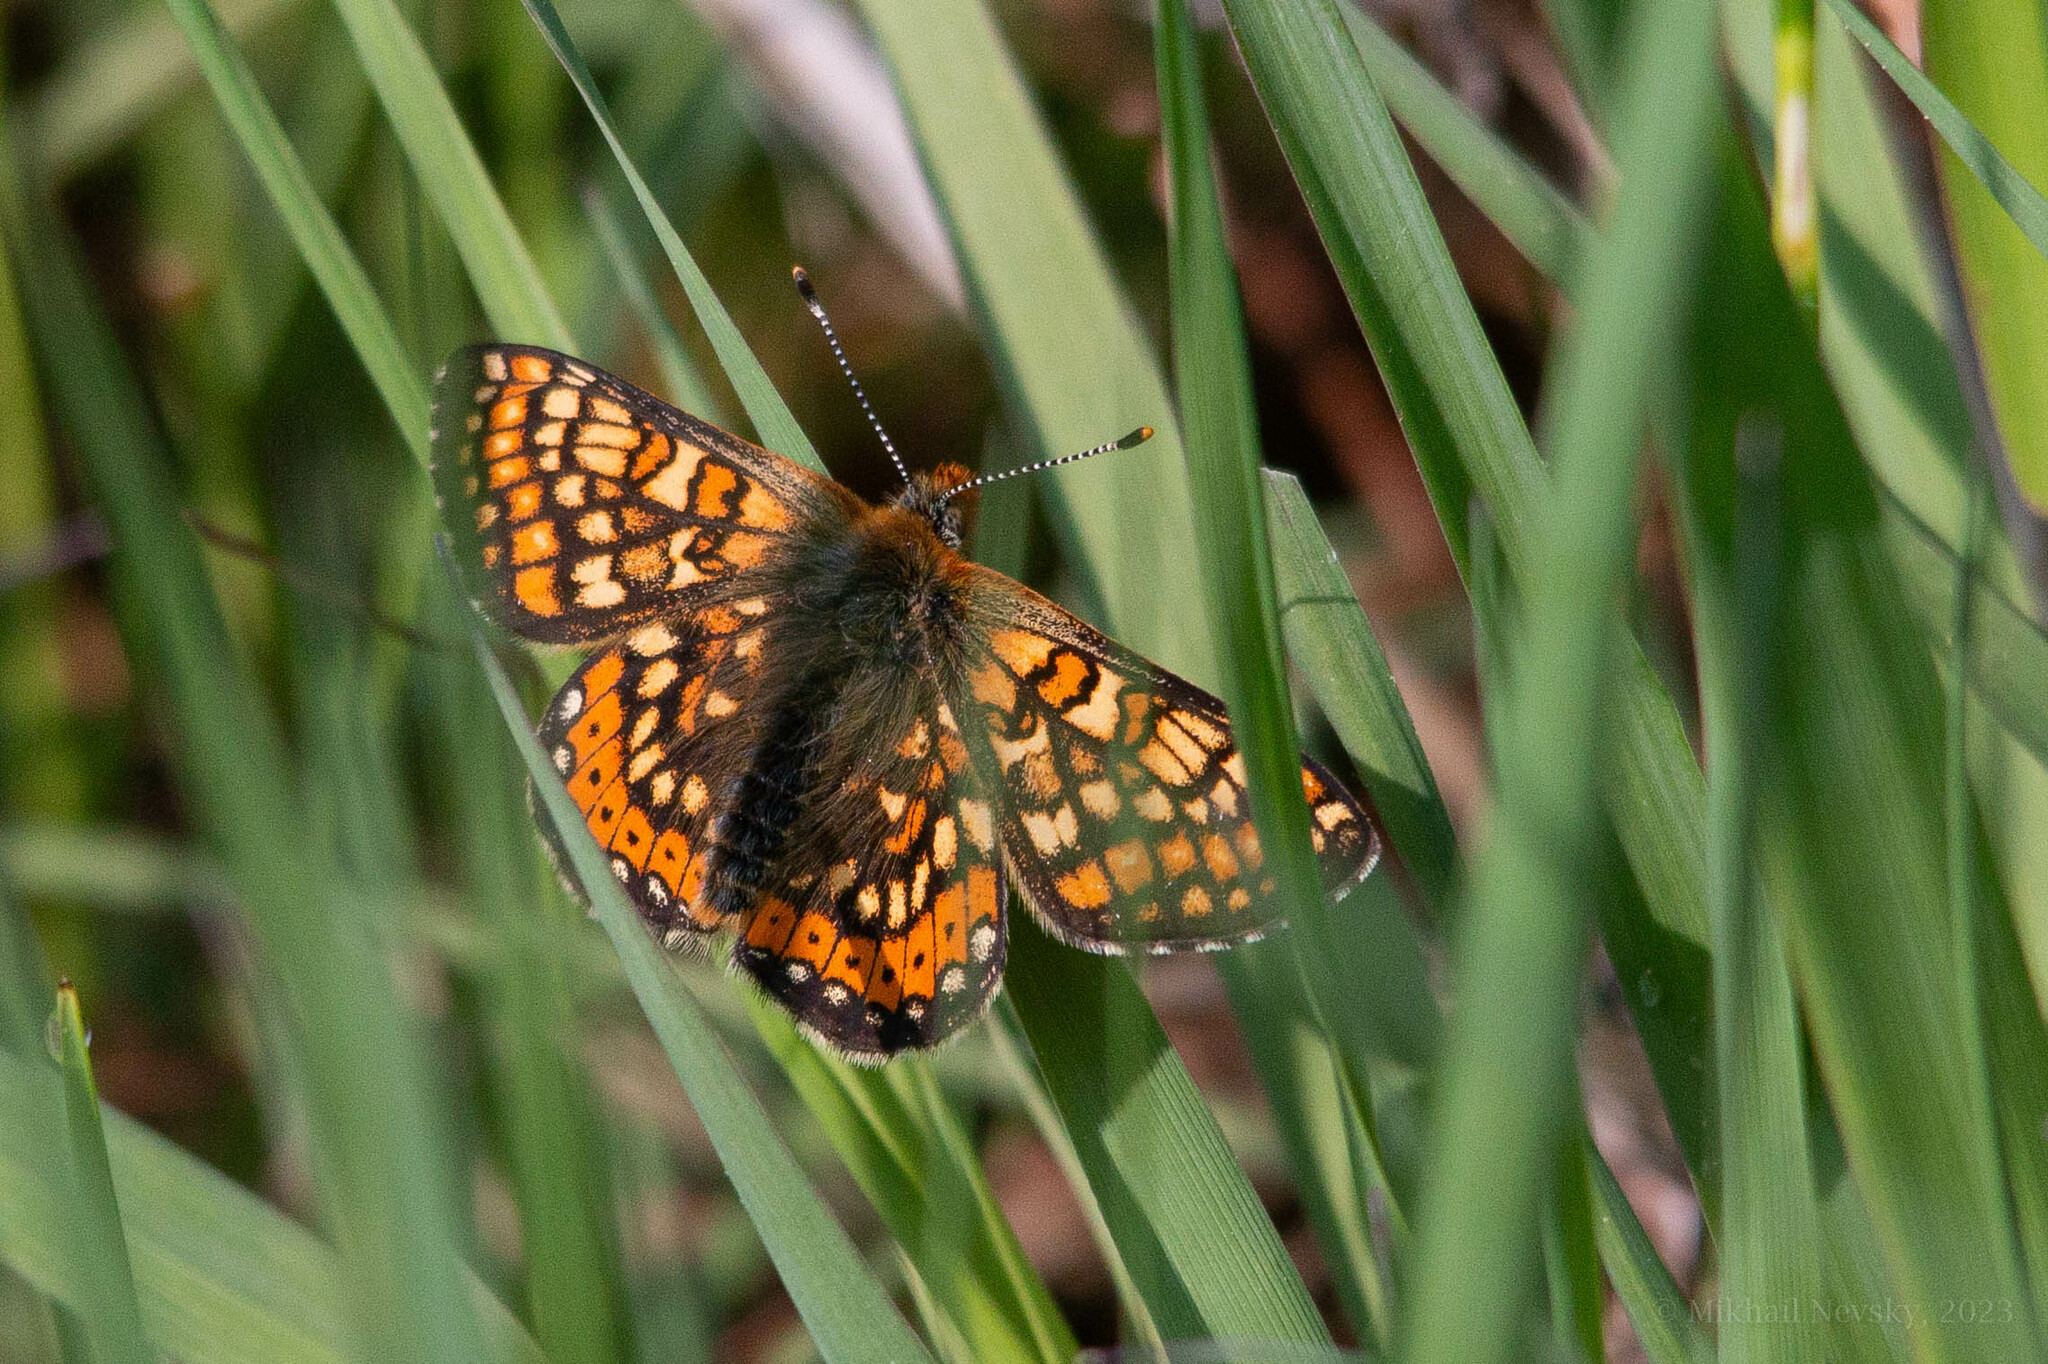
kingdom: Animalia
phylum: Arthropoda
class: Insecta
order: Lepidoptera
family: Nymphalidae
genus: Euphydryas
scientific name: Euphydryas aurinia
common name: Marsh fritillary
